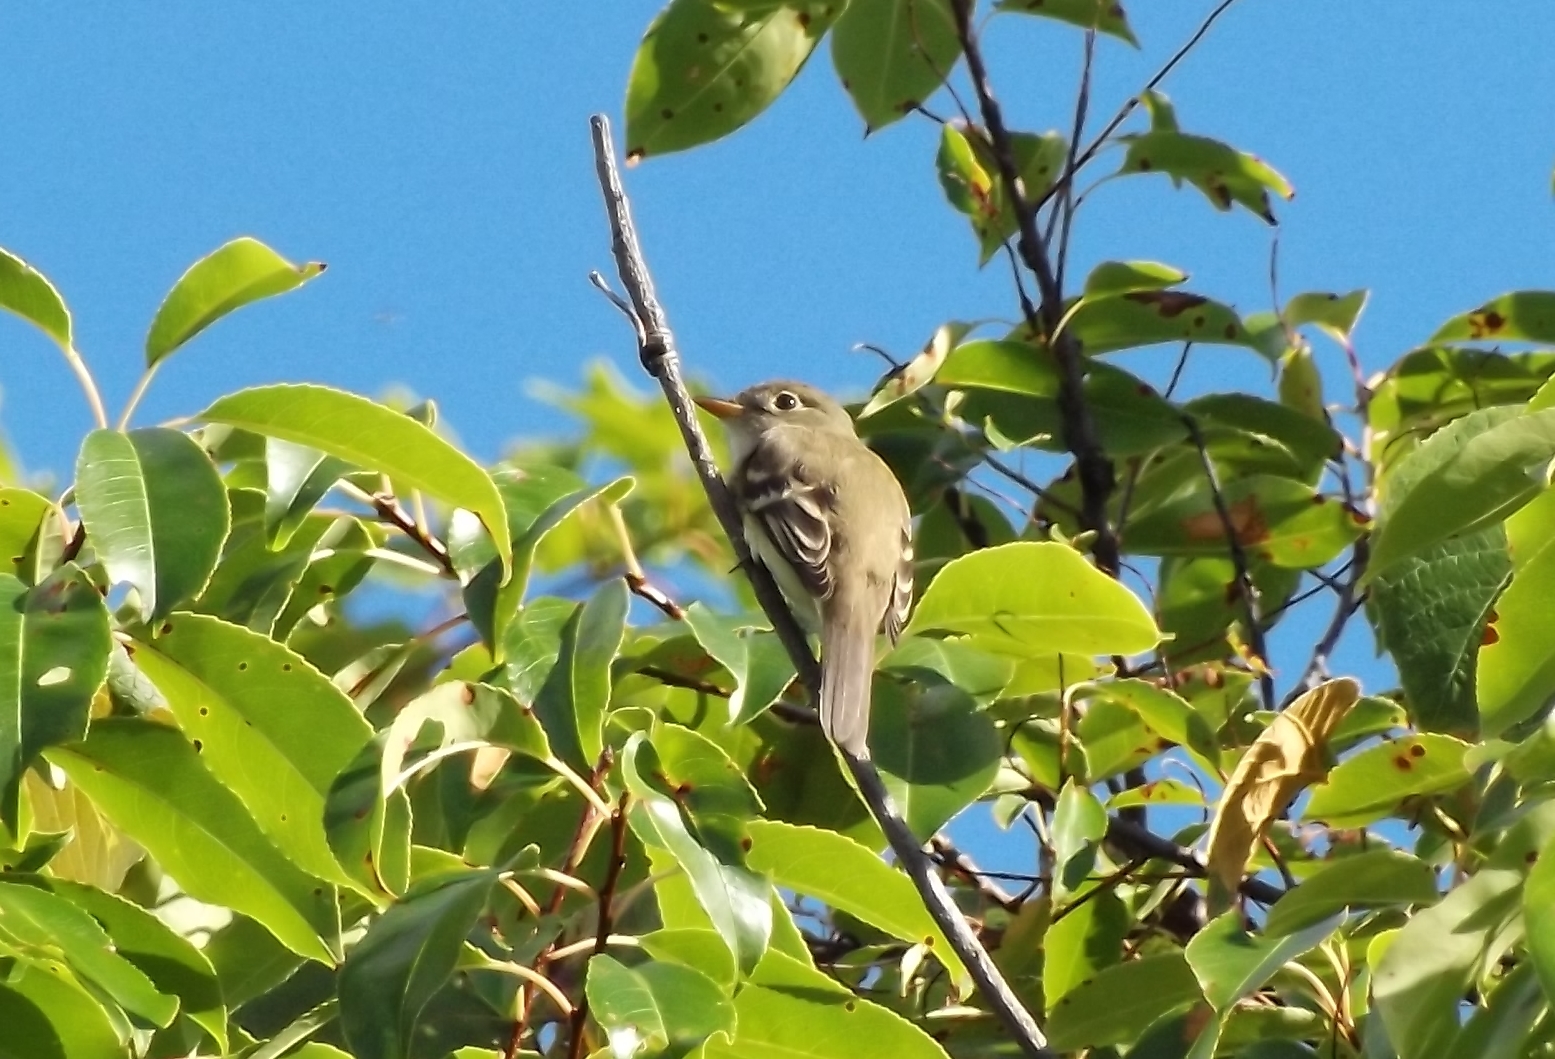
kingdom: Animalia
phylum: Chordata
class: Aves
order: Passeriformes
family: Tyrannidae
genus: Empidonax
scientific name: Empidonax minimus
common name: Least flycatcher
